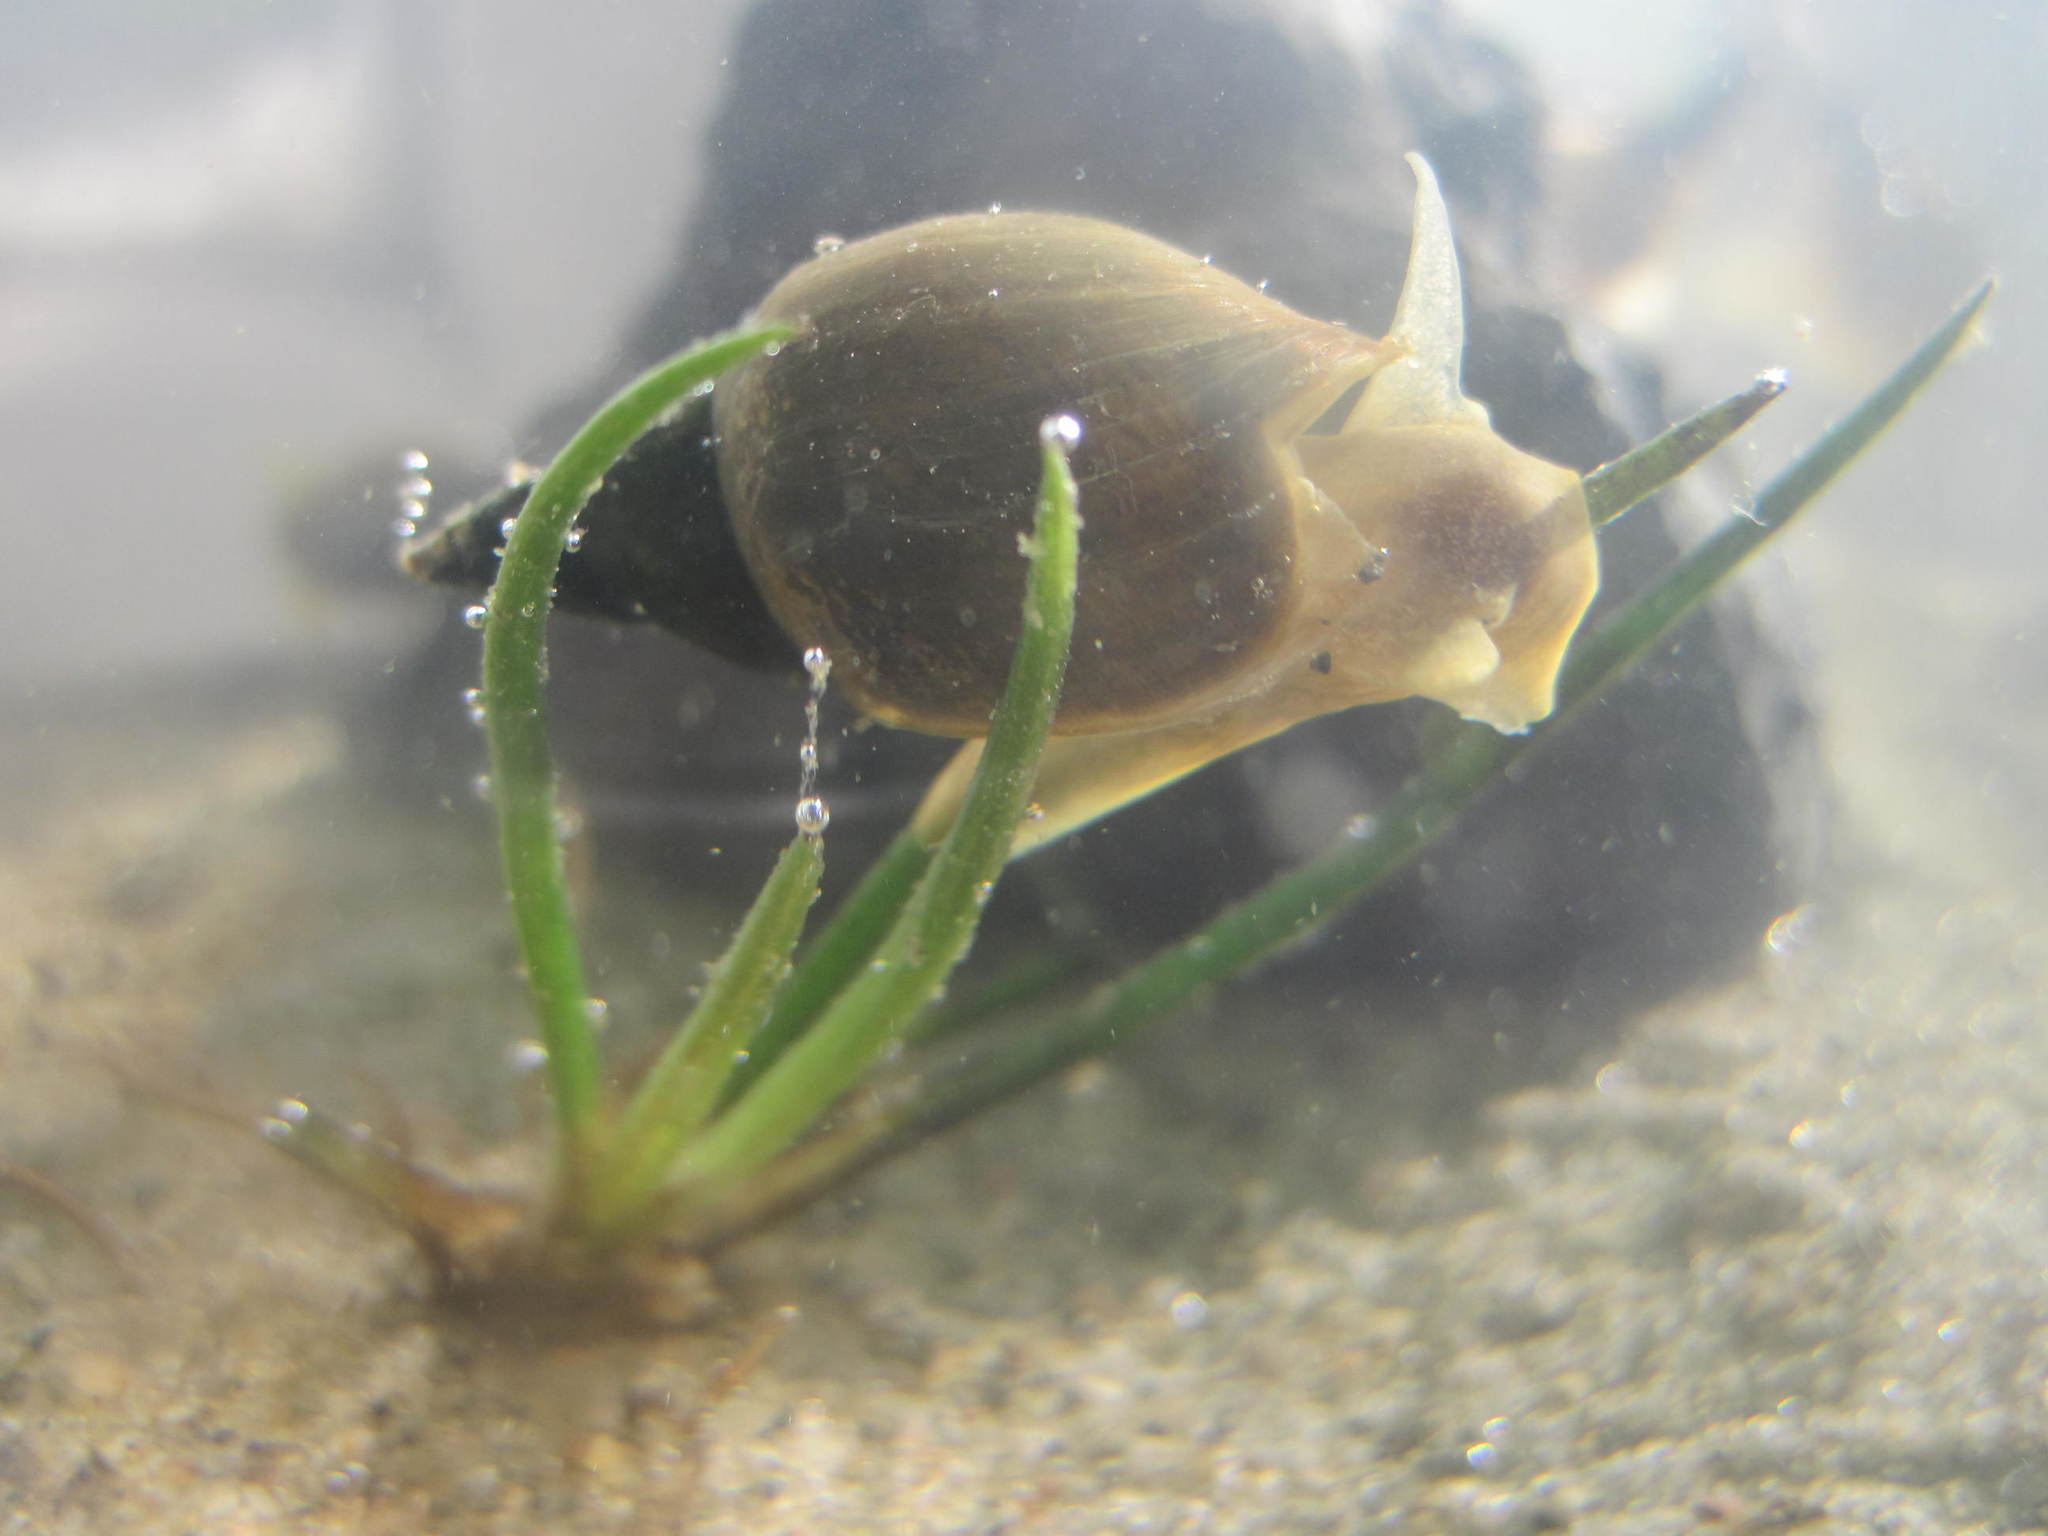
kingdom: Animalia
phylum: Mollusca
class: Gastropoda
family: Lymnaeidae
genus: Lymnaea
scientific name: Lymnaea stagnalis
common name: Great pond snail
